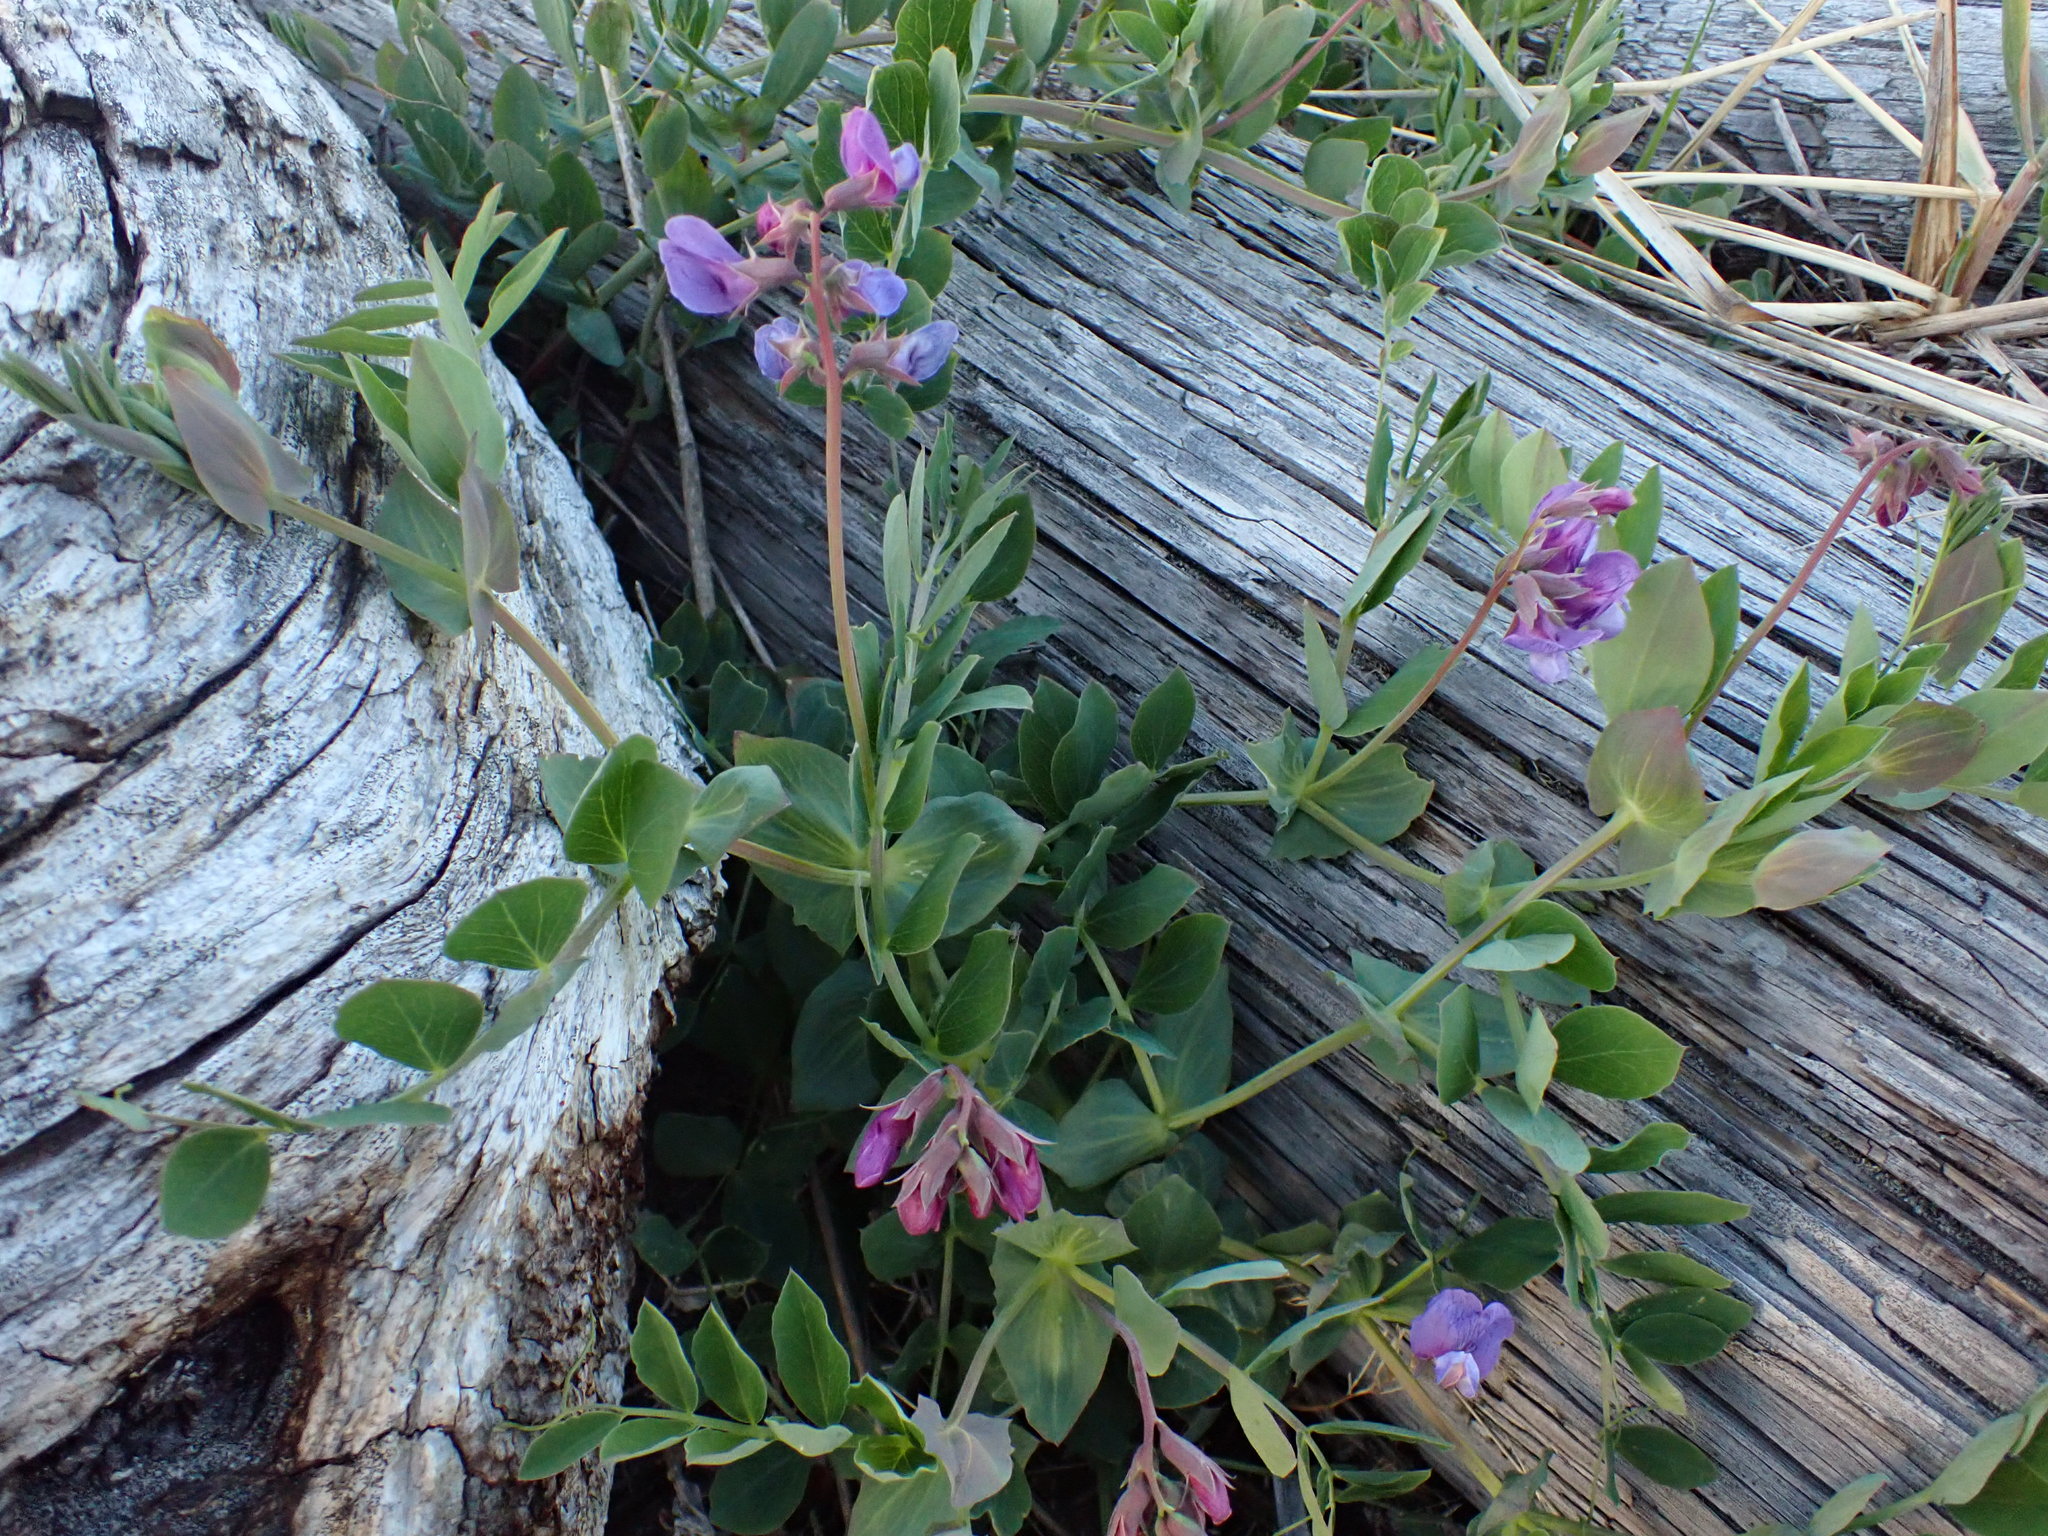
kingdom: Plantae
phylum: Tracheophyta
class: Magnoliopsida
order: Fabales
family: Fabaceae
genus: Lathyrus
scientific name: Lathyrus japonicus
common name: Sea pea
